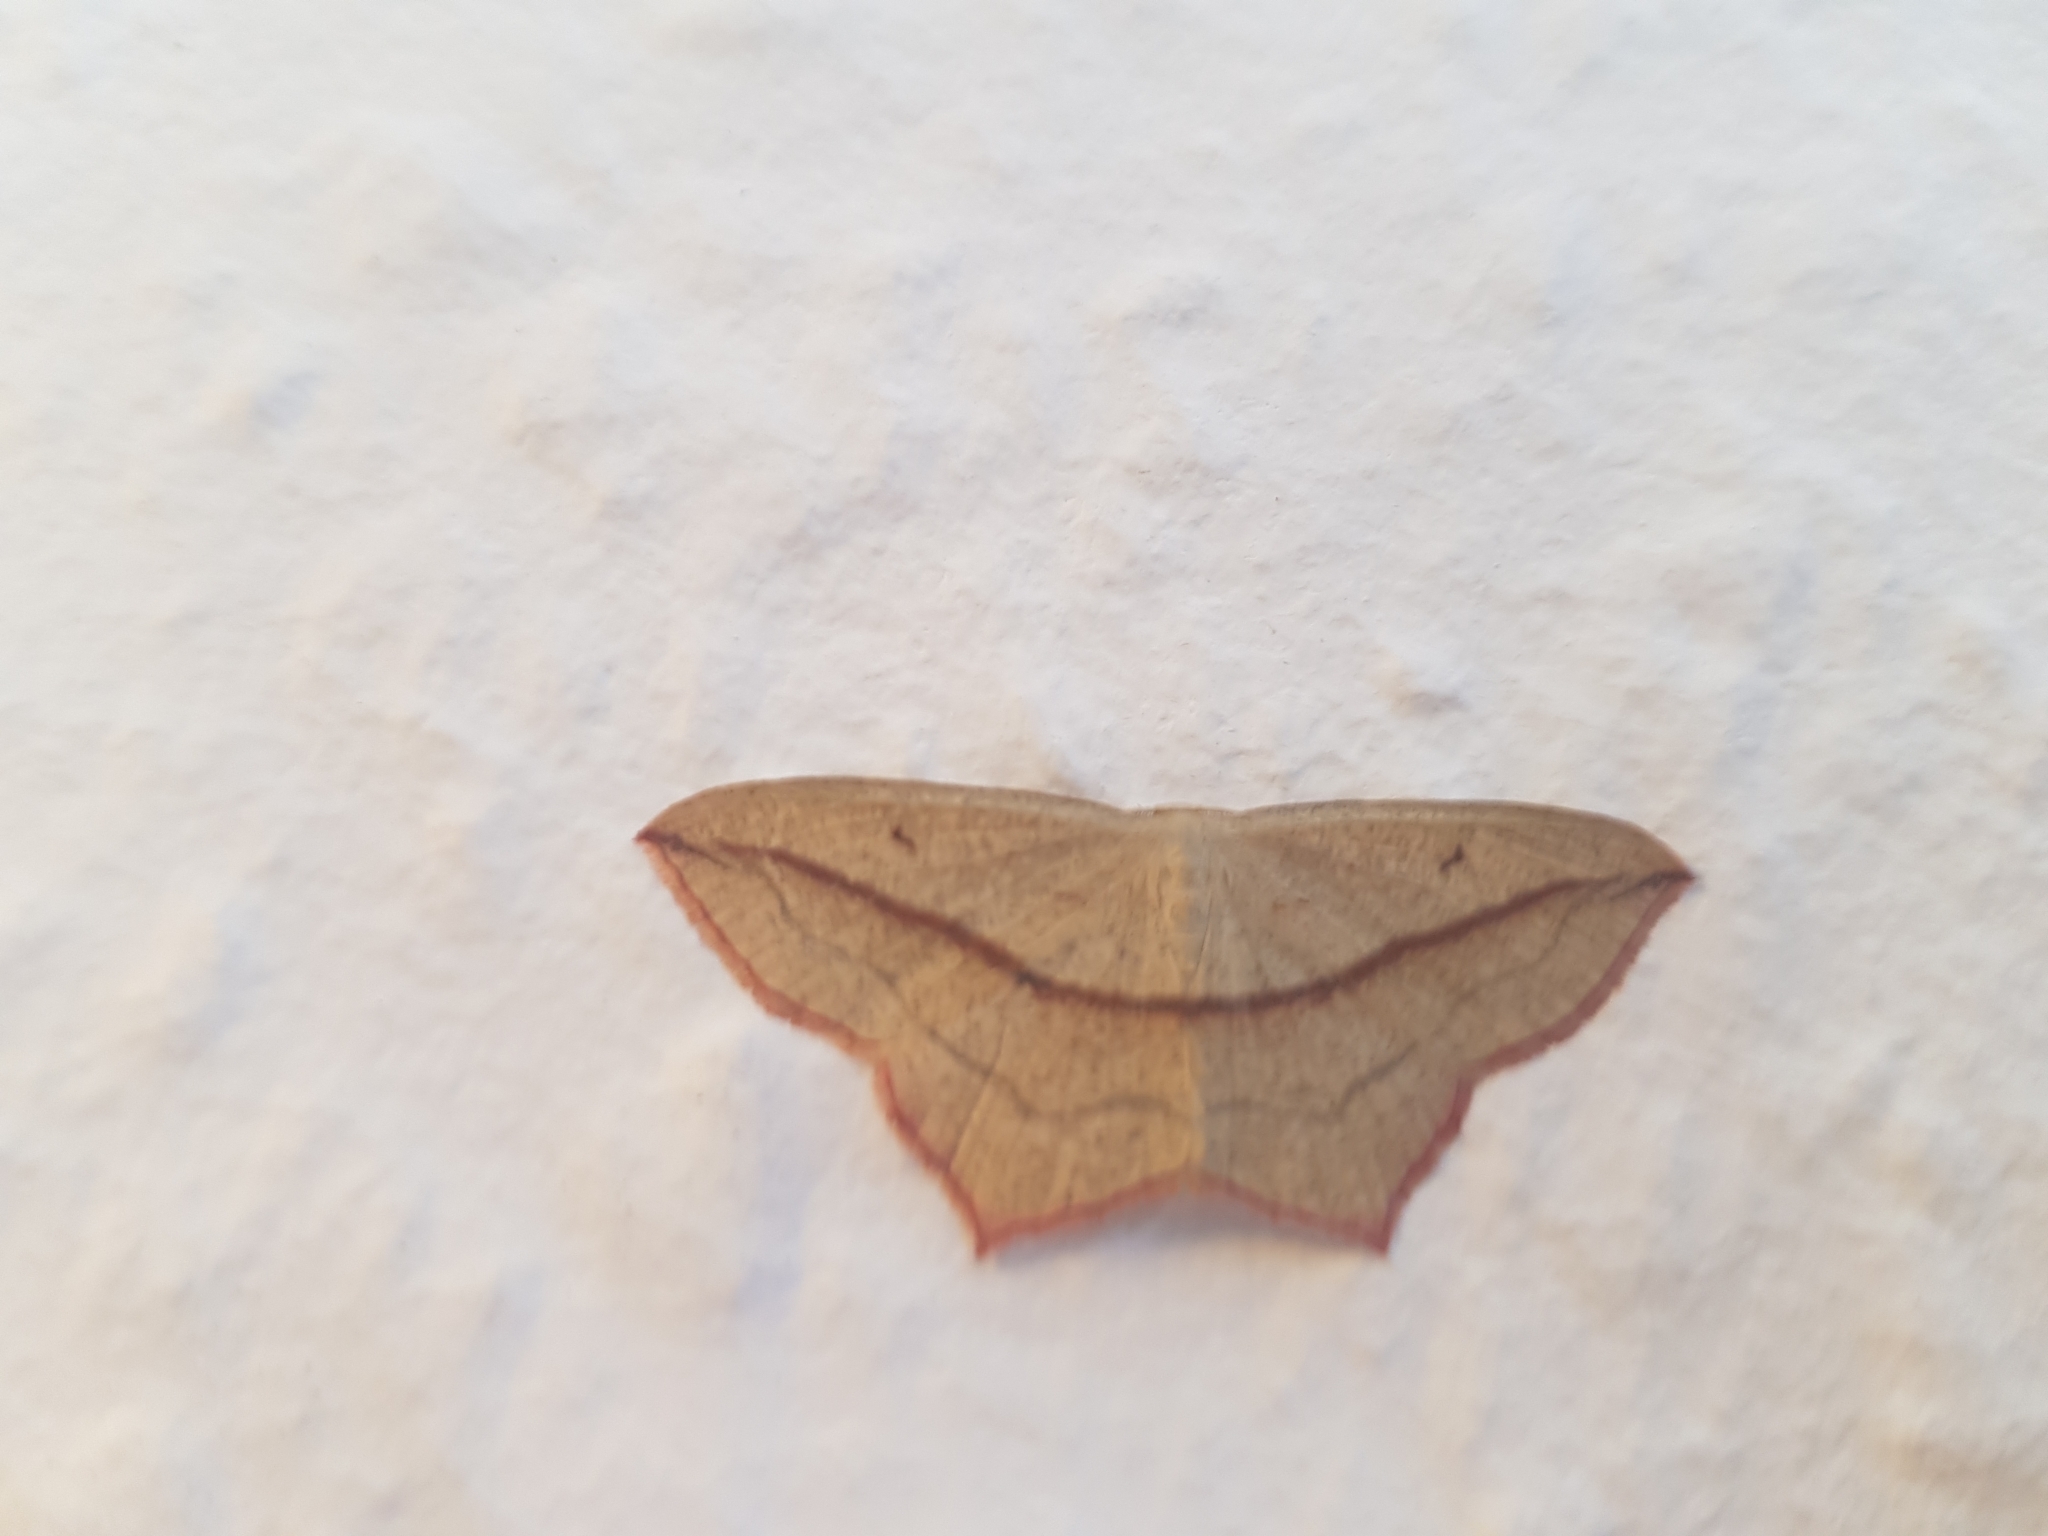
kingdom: Animalia
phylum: Arthropoda
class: Insecta
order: Lepidoptera
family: Geometridae
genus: Timandra
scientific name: Timandra comae
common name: Blood-vein
